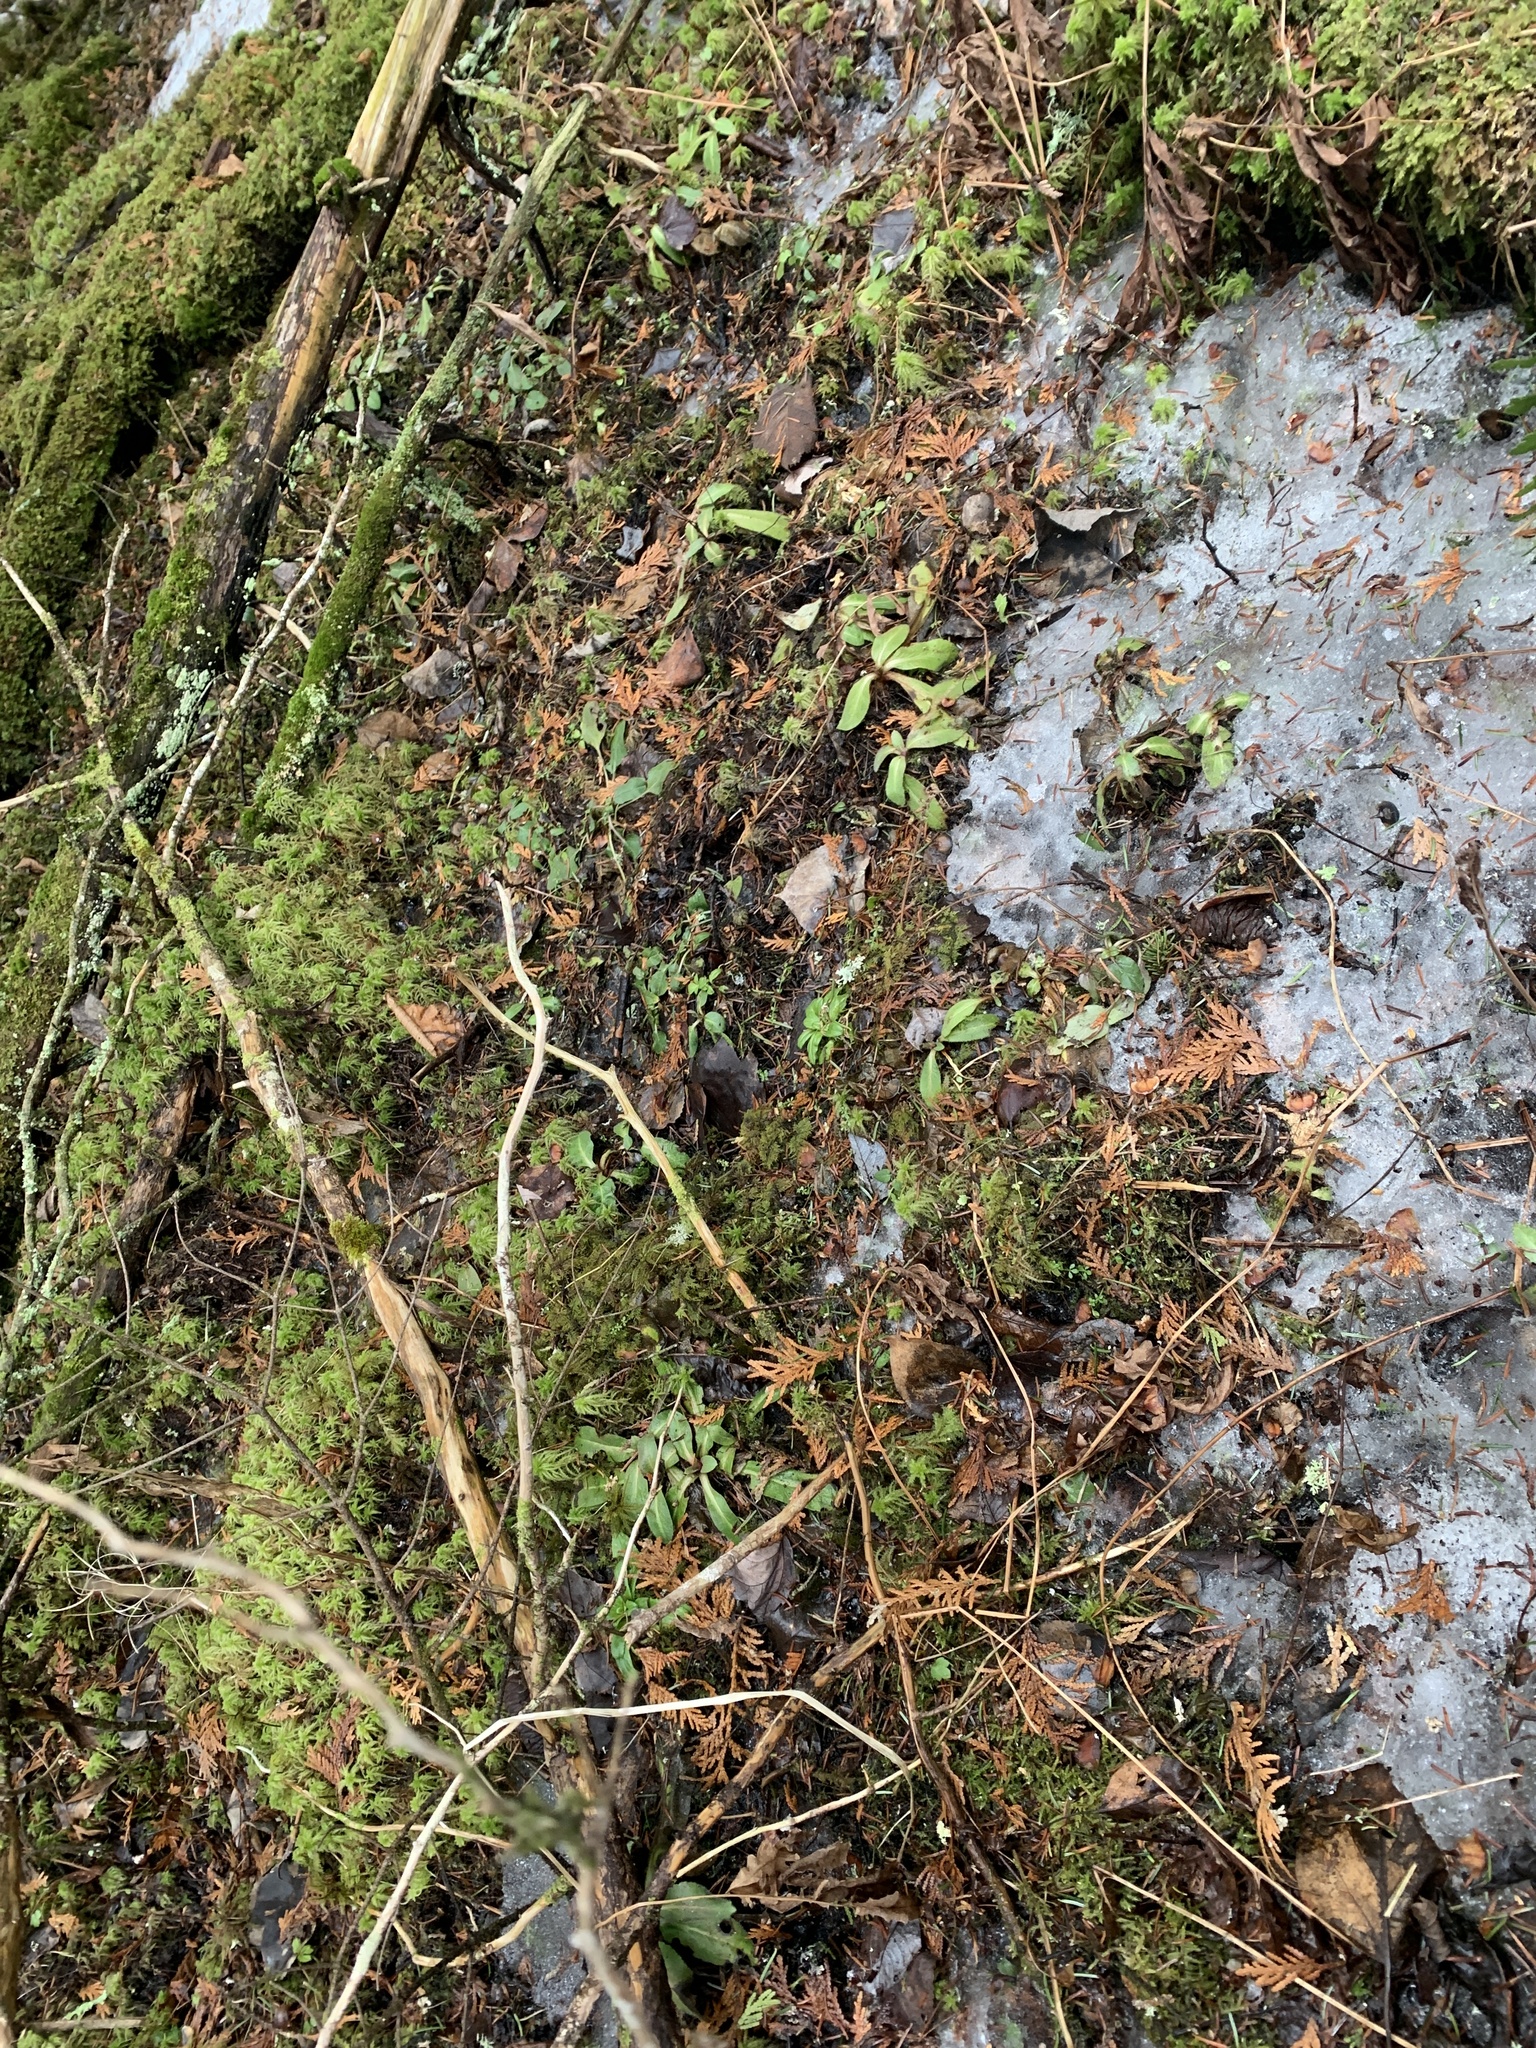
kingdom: Plantae
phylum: Tracheophyta
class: Magnoliopsida
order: Saxifragales
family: Saxifragaceae
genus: Micranthes
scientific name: Micranthes pensylvanica
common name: Marsh saxifrage
